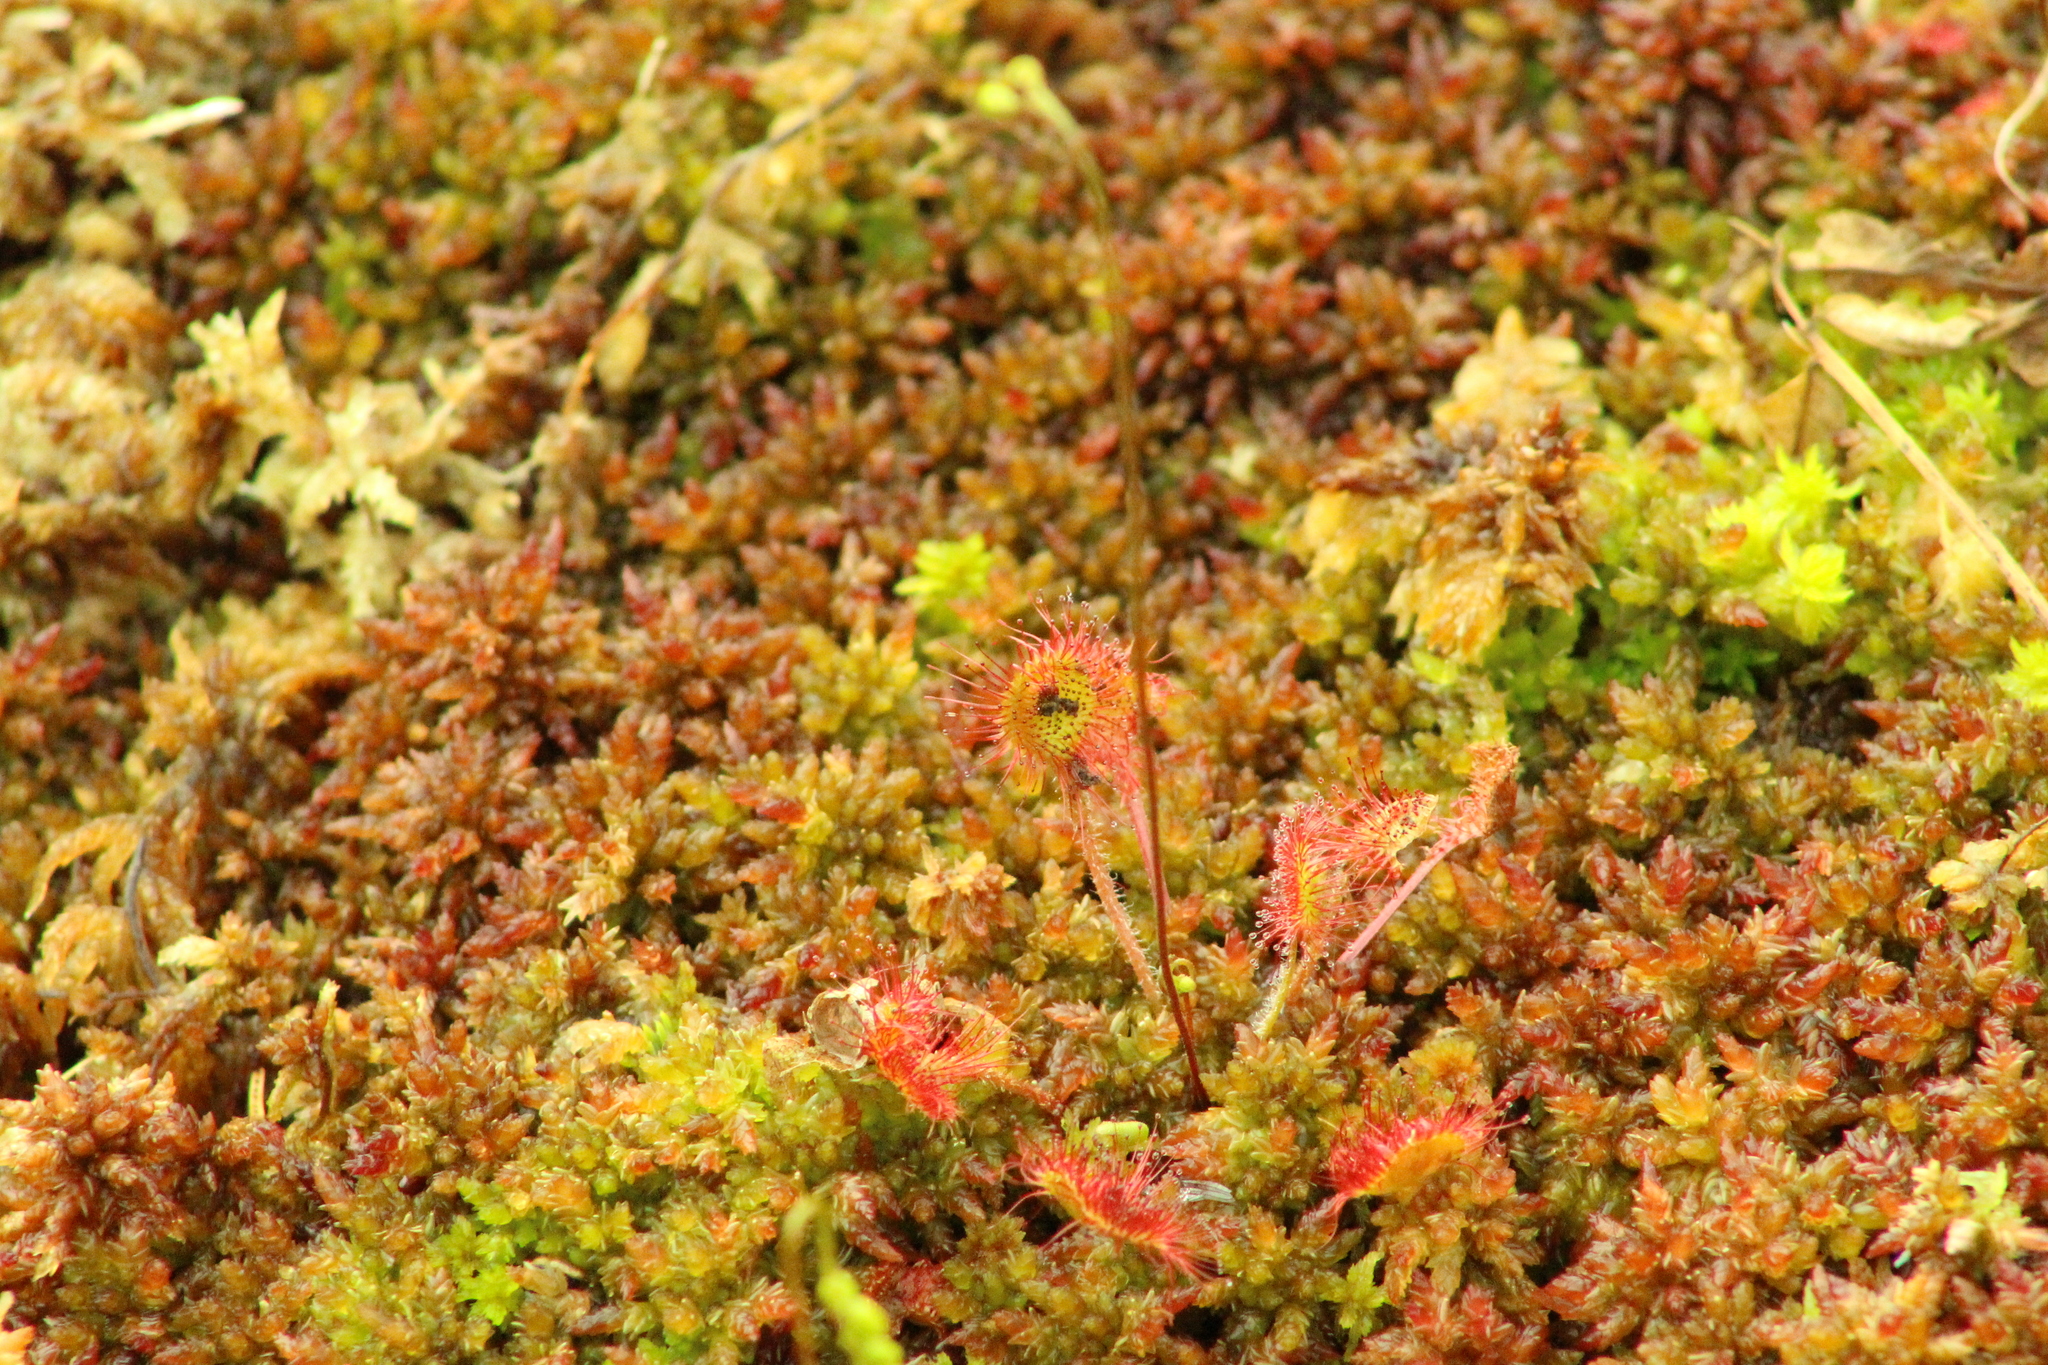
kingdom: Plantae
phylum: Tracheophyta
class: Magnoliopsida
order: Caryophyllales
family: Droseraceae
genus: Drosera
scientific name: Drosera rotundifolia
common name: Round-leaved sundew
